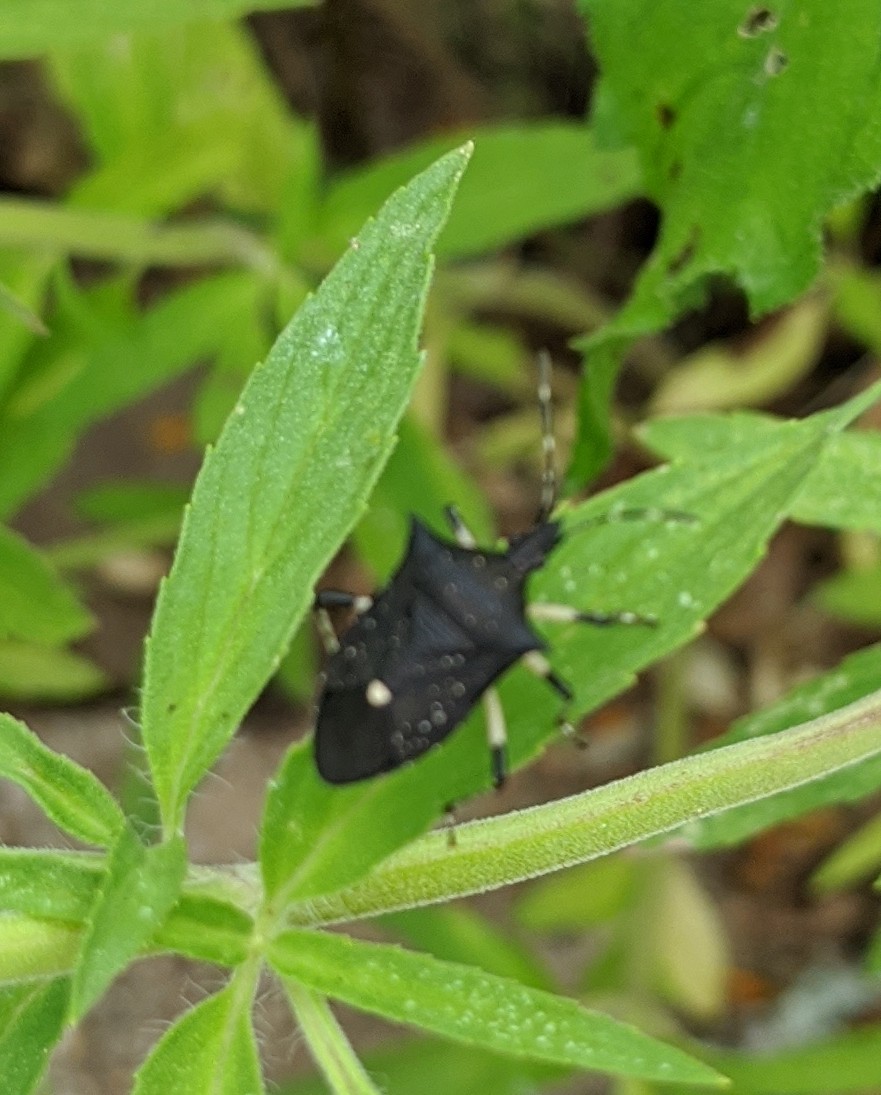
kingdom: Animalia
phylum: Arthropoda
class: Insecta
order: Hemiptera
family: Pentatomidae
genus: Proxys
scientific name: Proxys punctulatus
